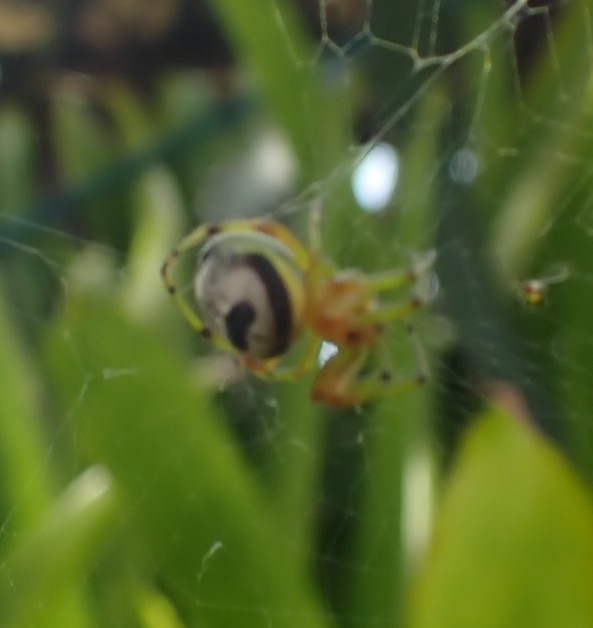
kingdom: Animalia
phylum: Arthropoda
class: Arachnida
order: Araneae
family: Araneidae
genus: Bijoaraneus
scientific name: Bijoaraneus mitificus
